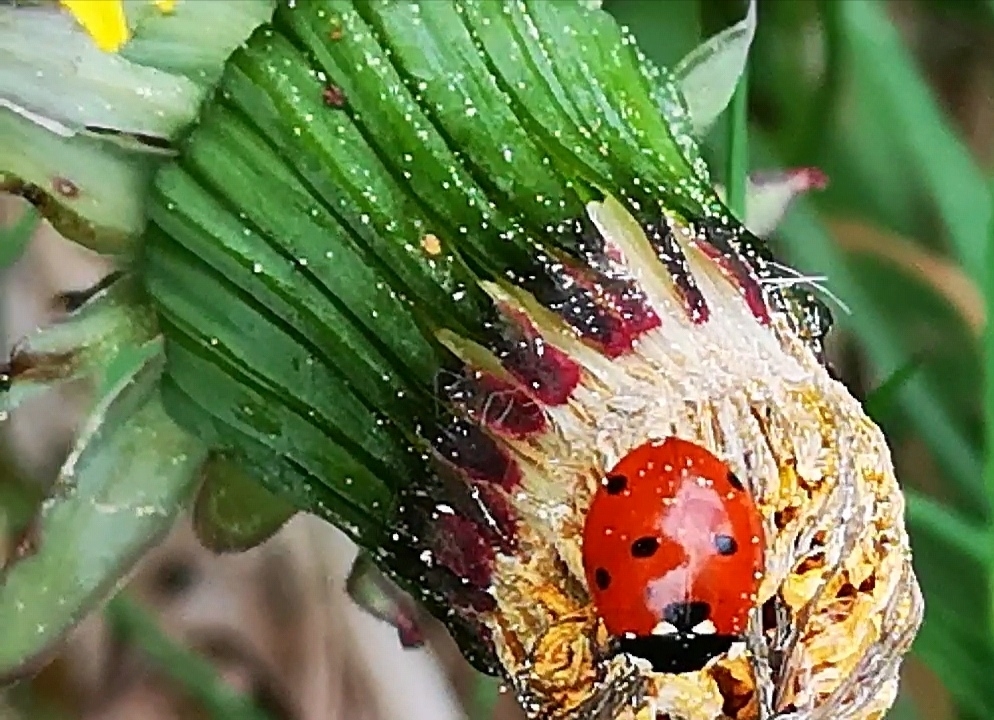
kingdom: Animalia
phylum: Arthropoda
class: Insecta
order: Coleoptera
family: Coccinellidae
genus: Coccinella
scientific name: Coccinella septempunctata
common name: Sevenspotted lady beetle
